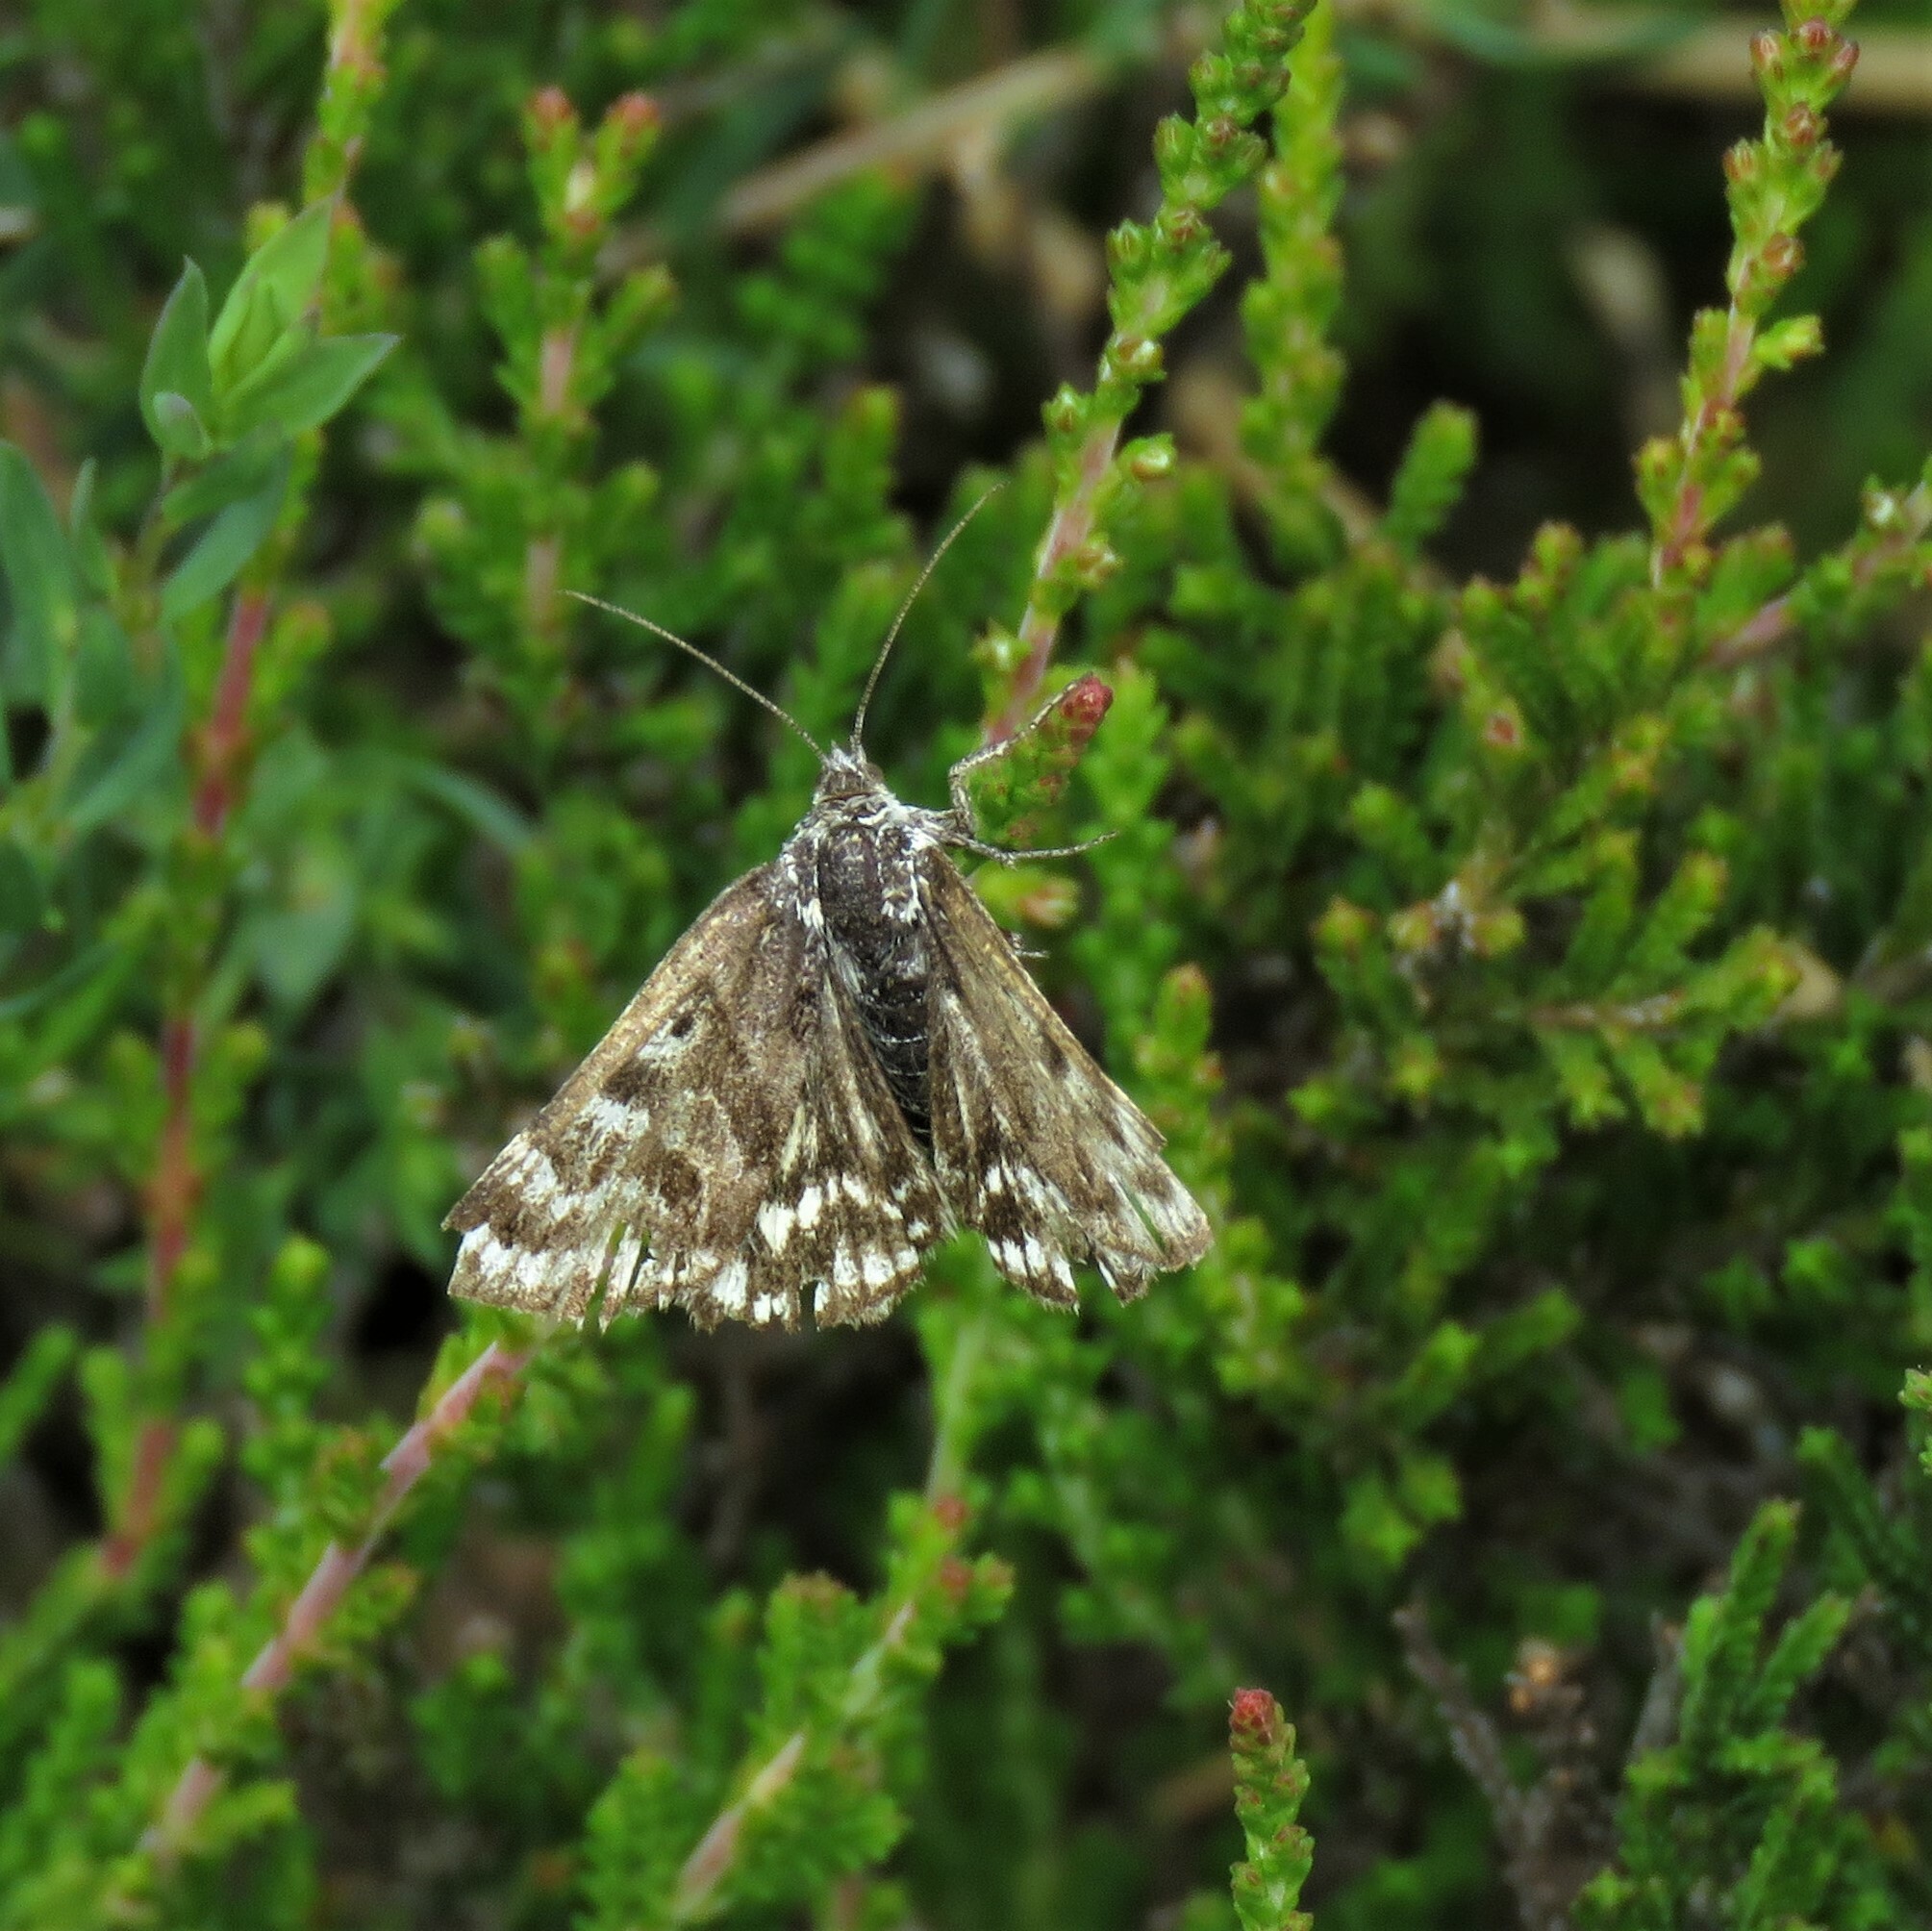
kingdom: Animalia
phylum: Arthropoda
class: Insecta
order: Lepidoptera
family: Erebidae
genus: Callistege
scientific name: Callistege mi
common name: Mother shipton
